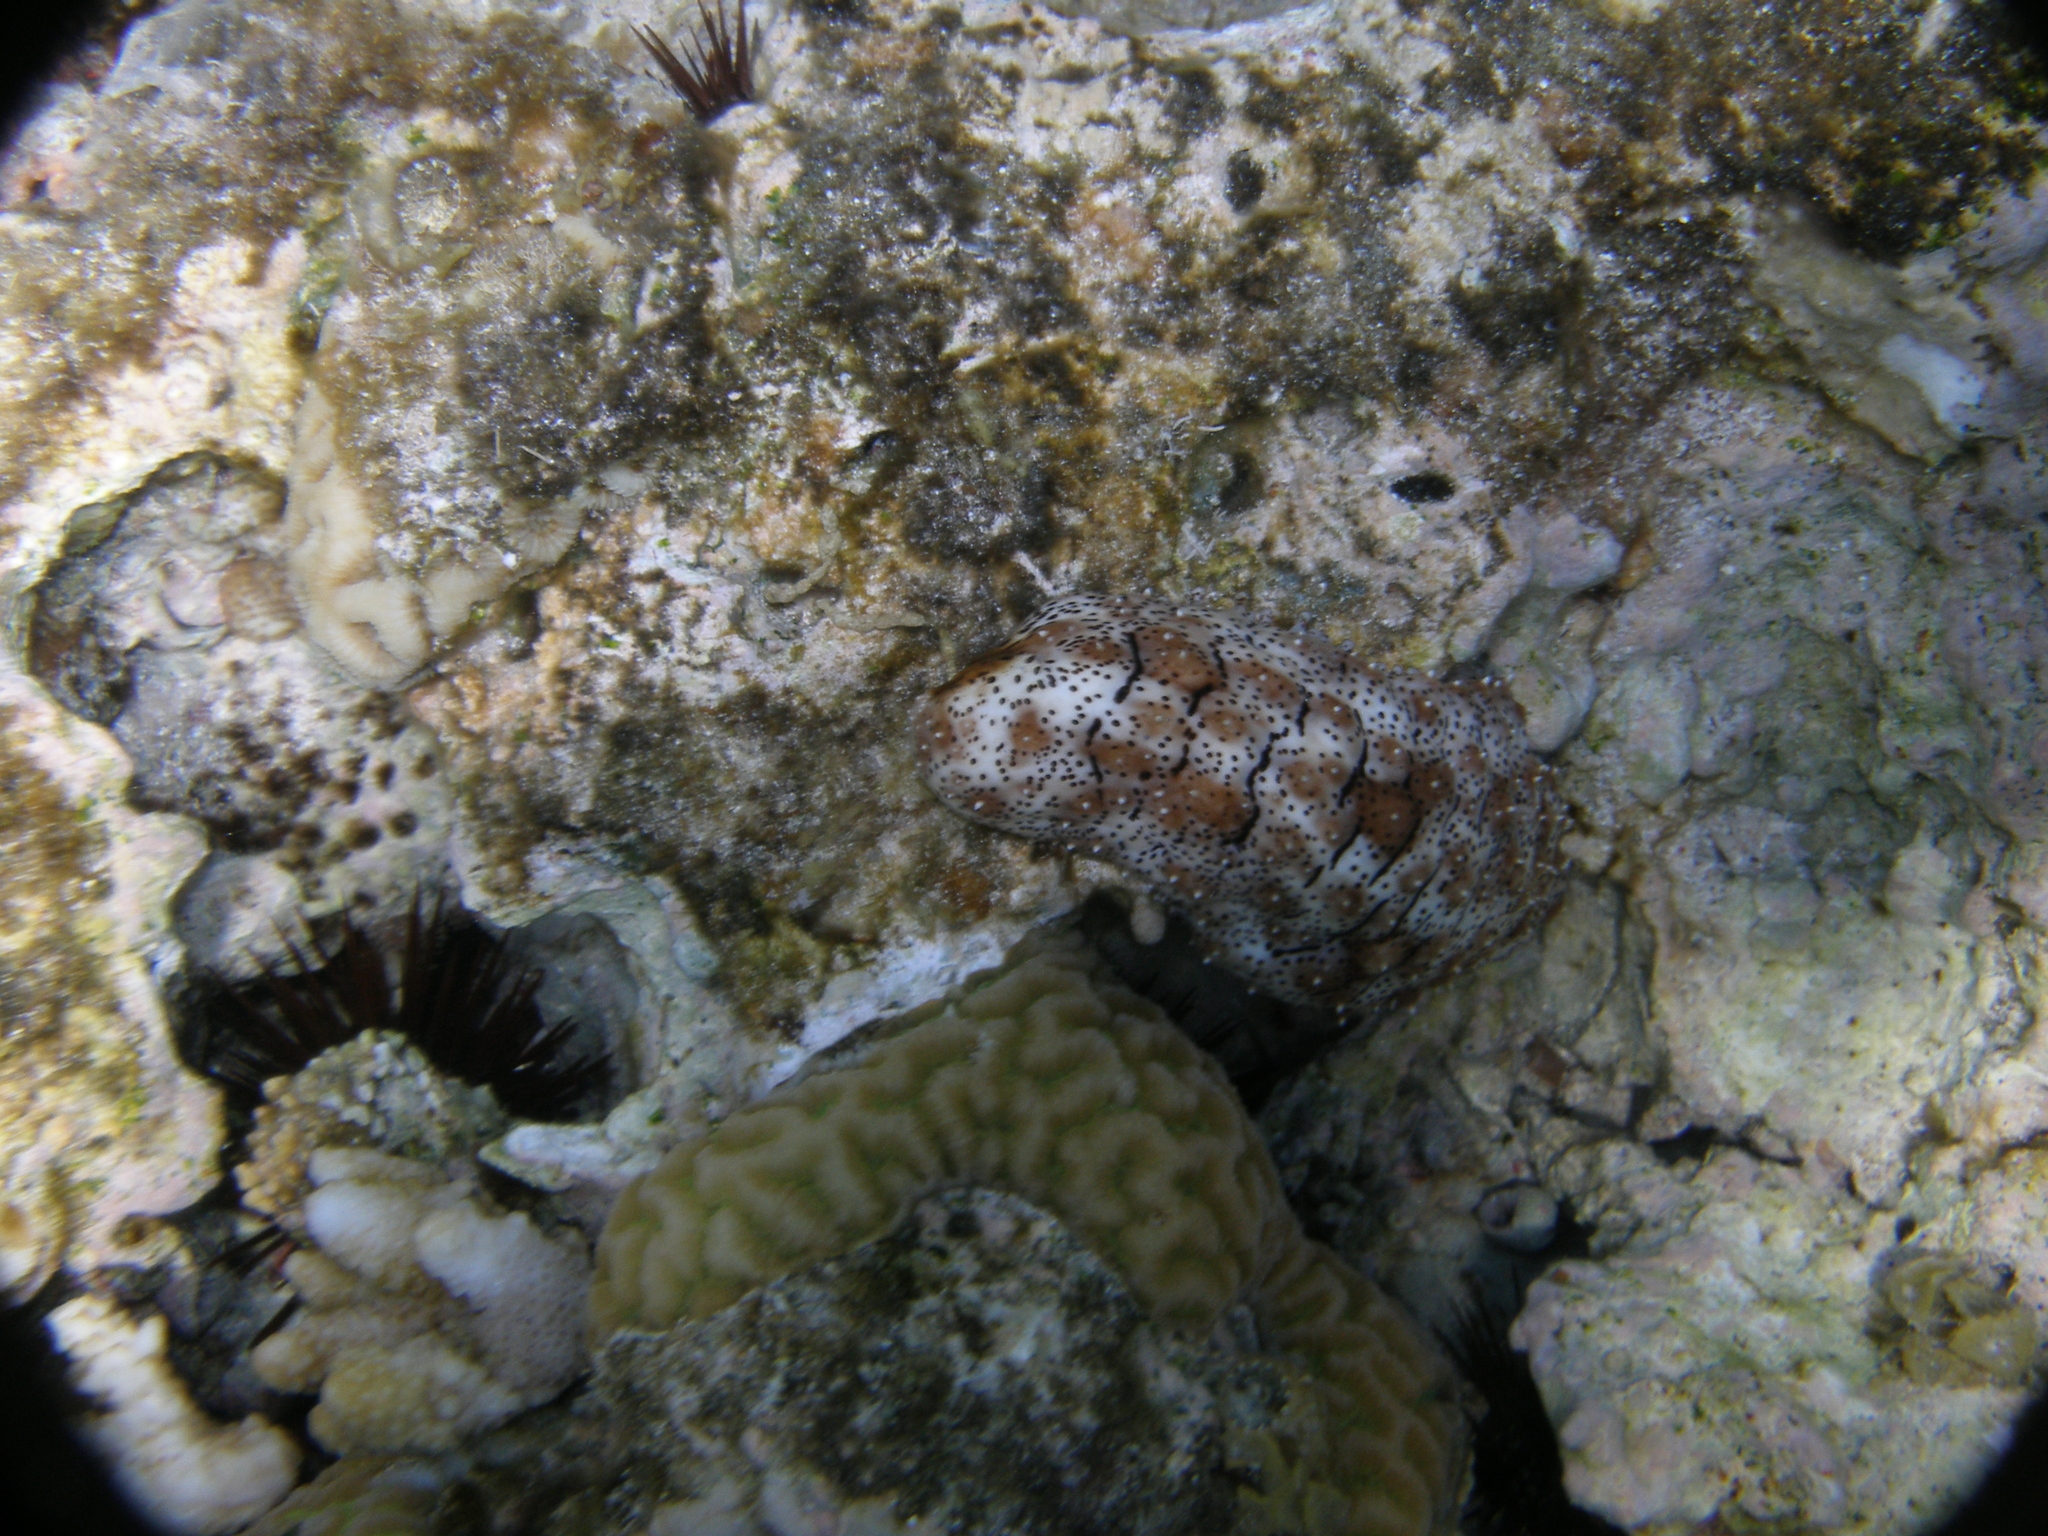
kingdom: Animalia
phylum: Echinodermata
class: Holothuroidea
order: Holothuriida
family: Holothuriidae
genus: Pearsonothuria
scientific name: Pearsonothuria graeffei
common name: Blackspotted sea cucumber
